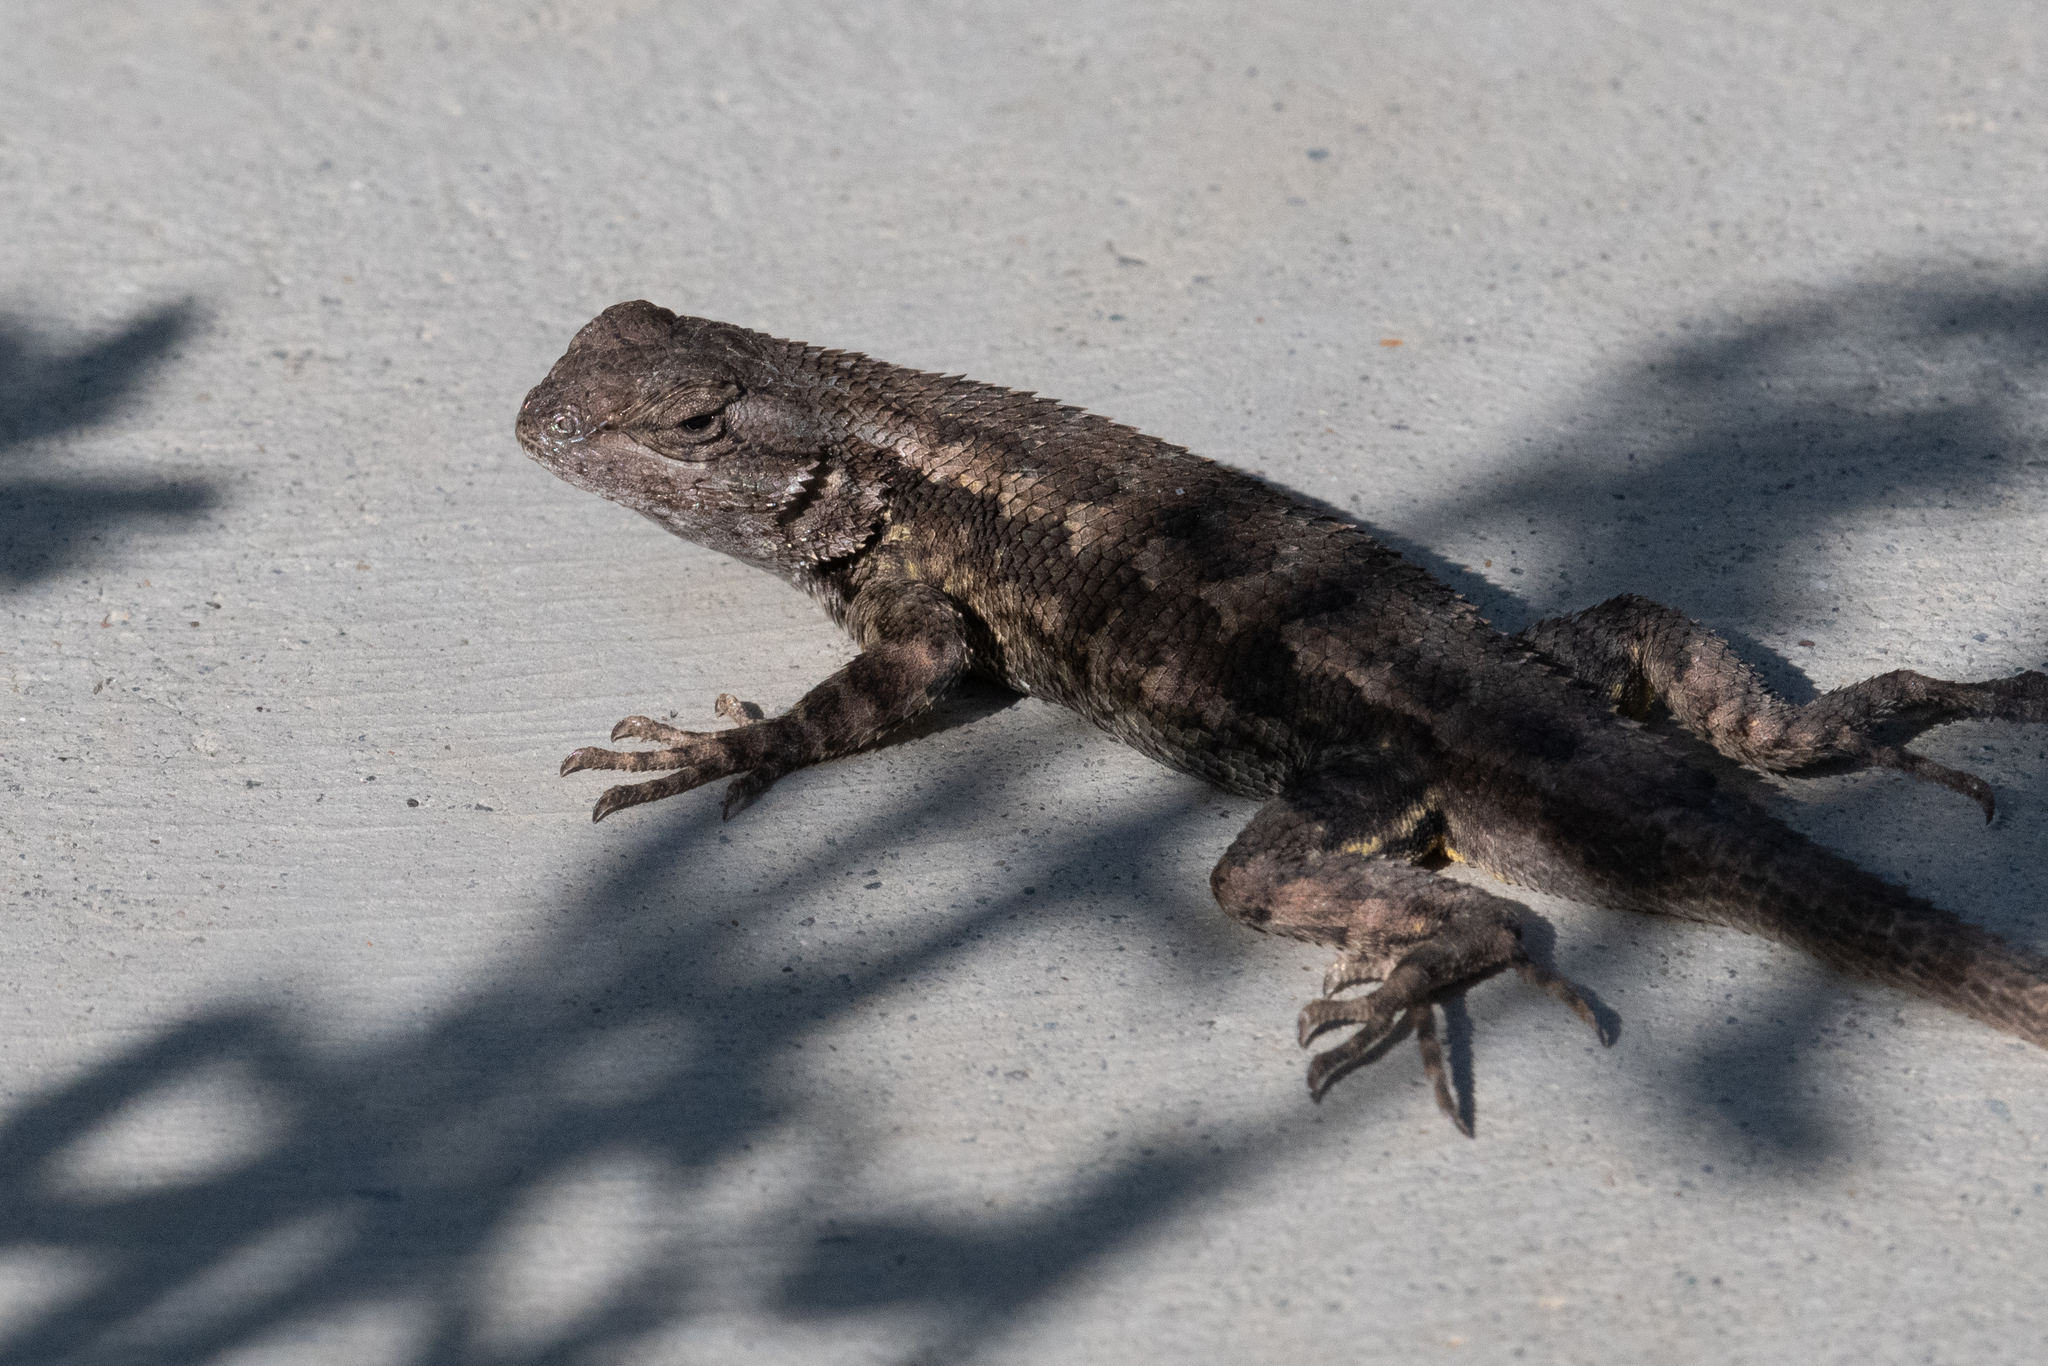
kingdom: Animalia
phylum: Chordata
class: Squamata
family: Phrynosomatidae
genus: Sceloporus
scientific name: Sceloporus occidentalis
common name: Western fence lizard
